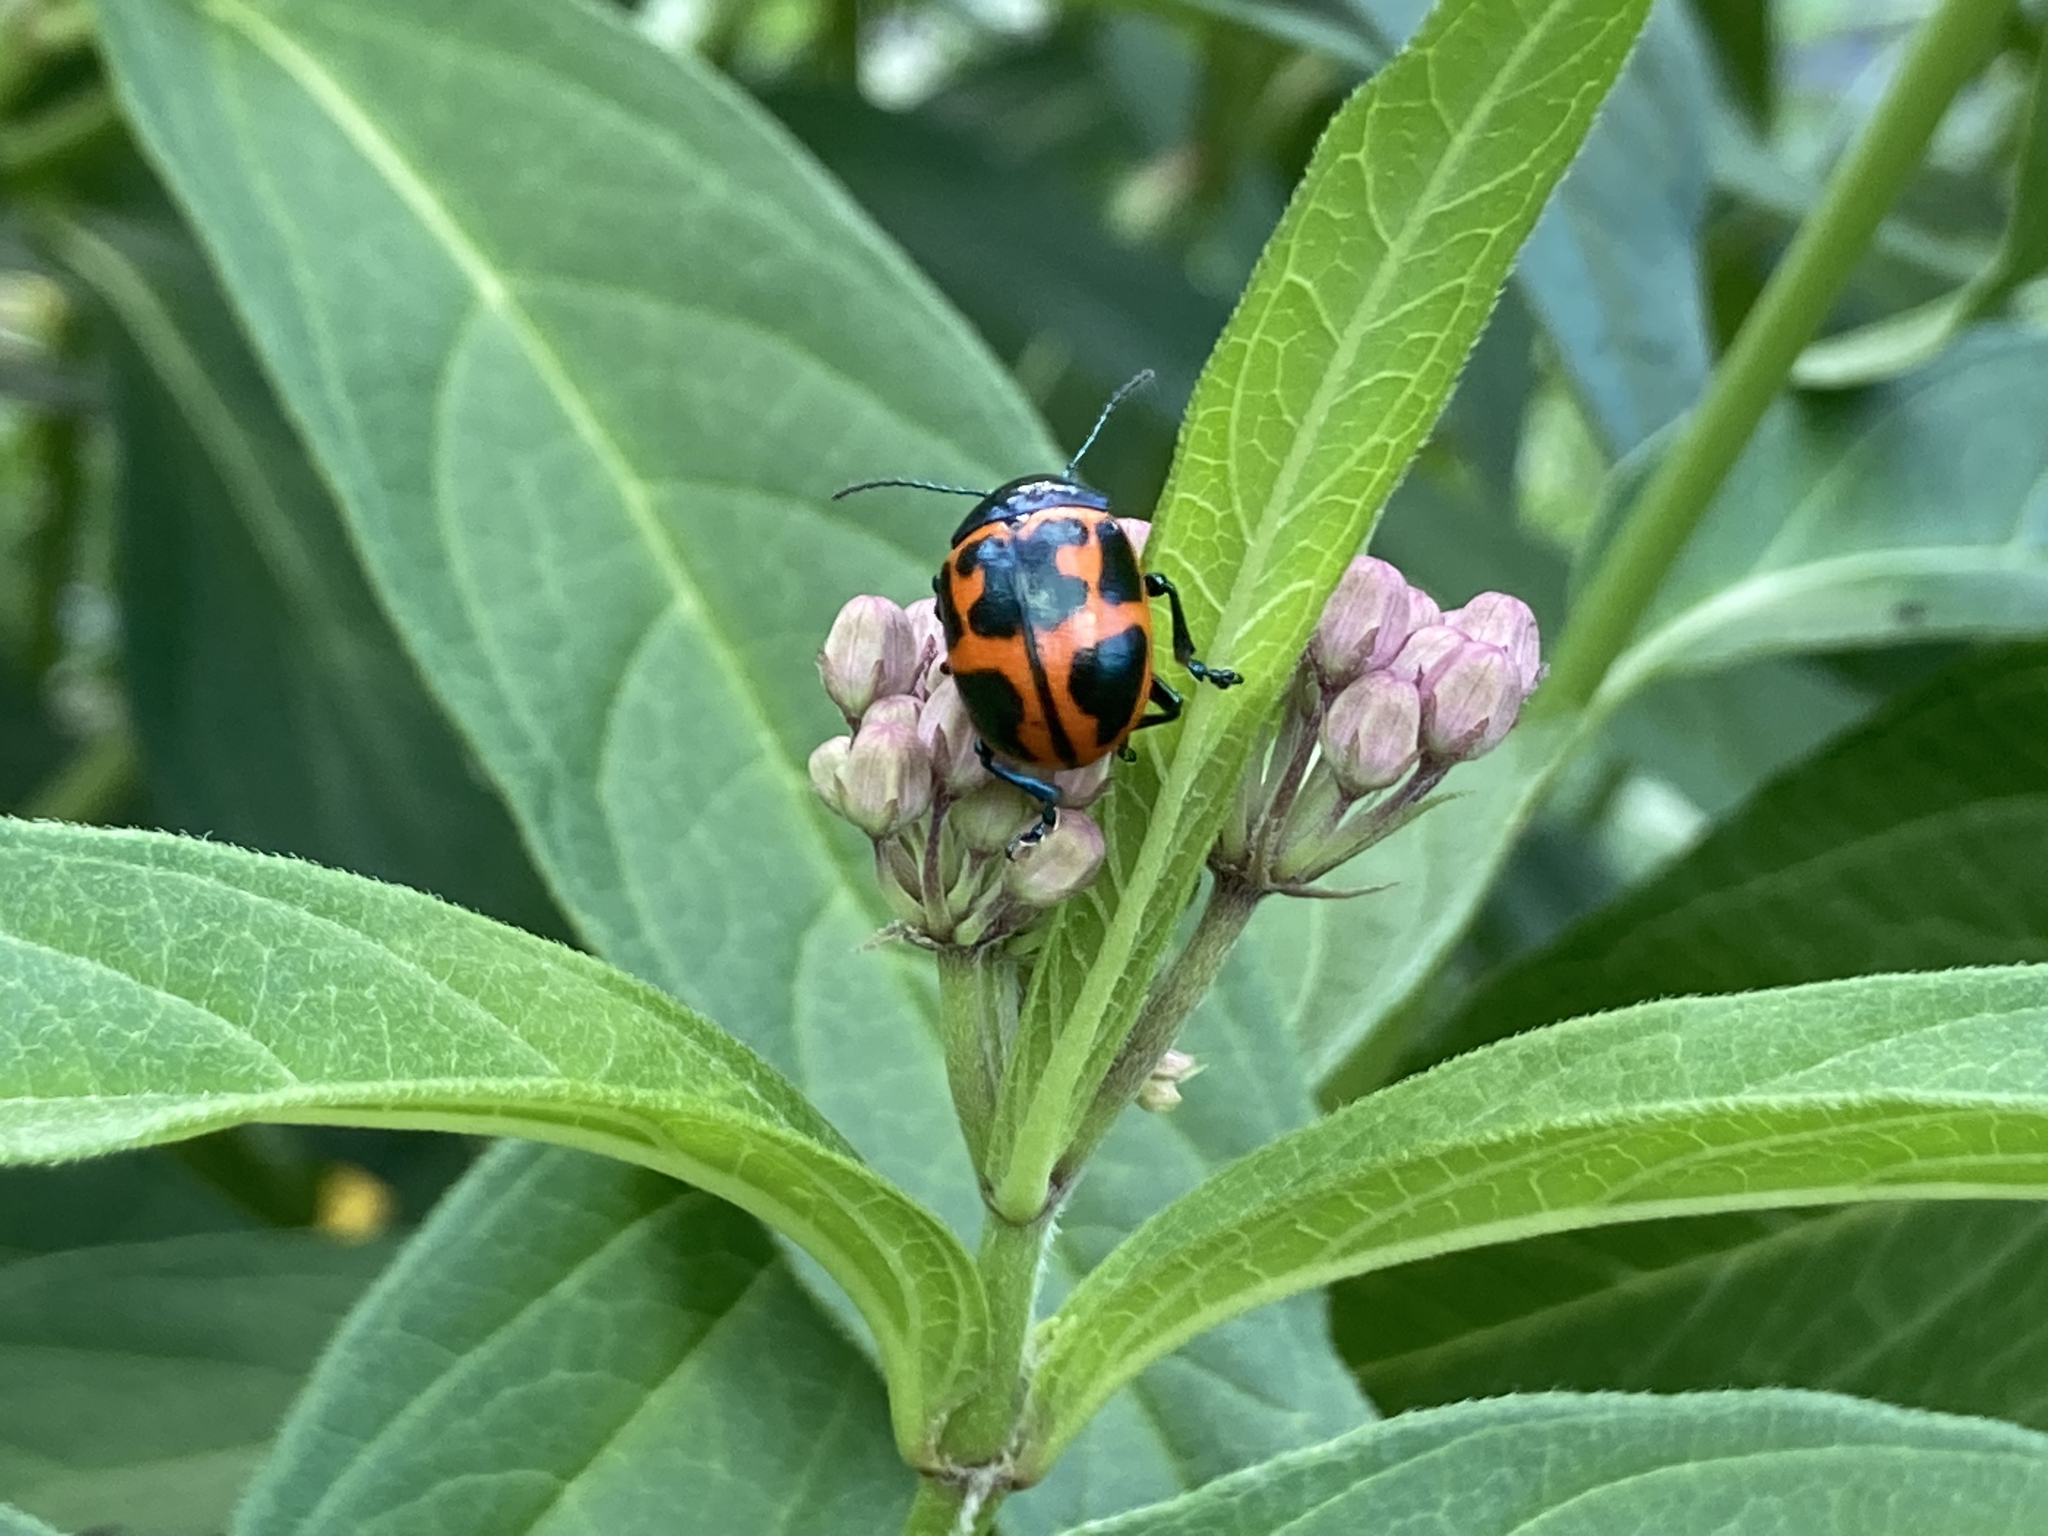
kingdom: Animalia
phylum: Arthropoda
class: Insecta
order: Coleoptera
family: Chrysomelidae
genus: Labidomera
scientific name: Labidomera clivicollis
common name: Swamp milkweed leaf beetle
